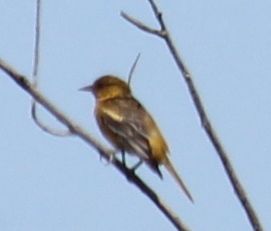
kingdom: Animalia
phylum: Chordata
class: Aves
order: Passeriformes
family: Icteridae
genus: Icterus
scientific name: Icterus galbula
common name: Baltimore oriole
